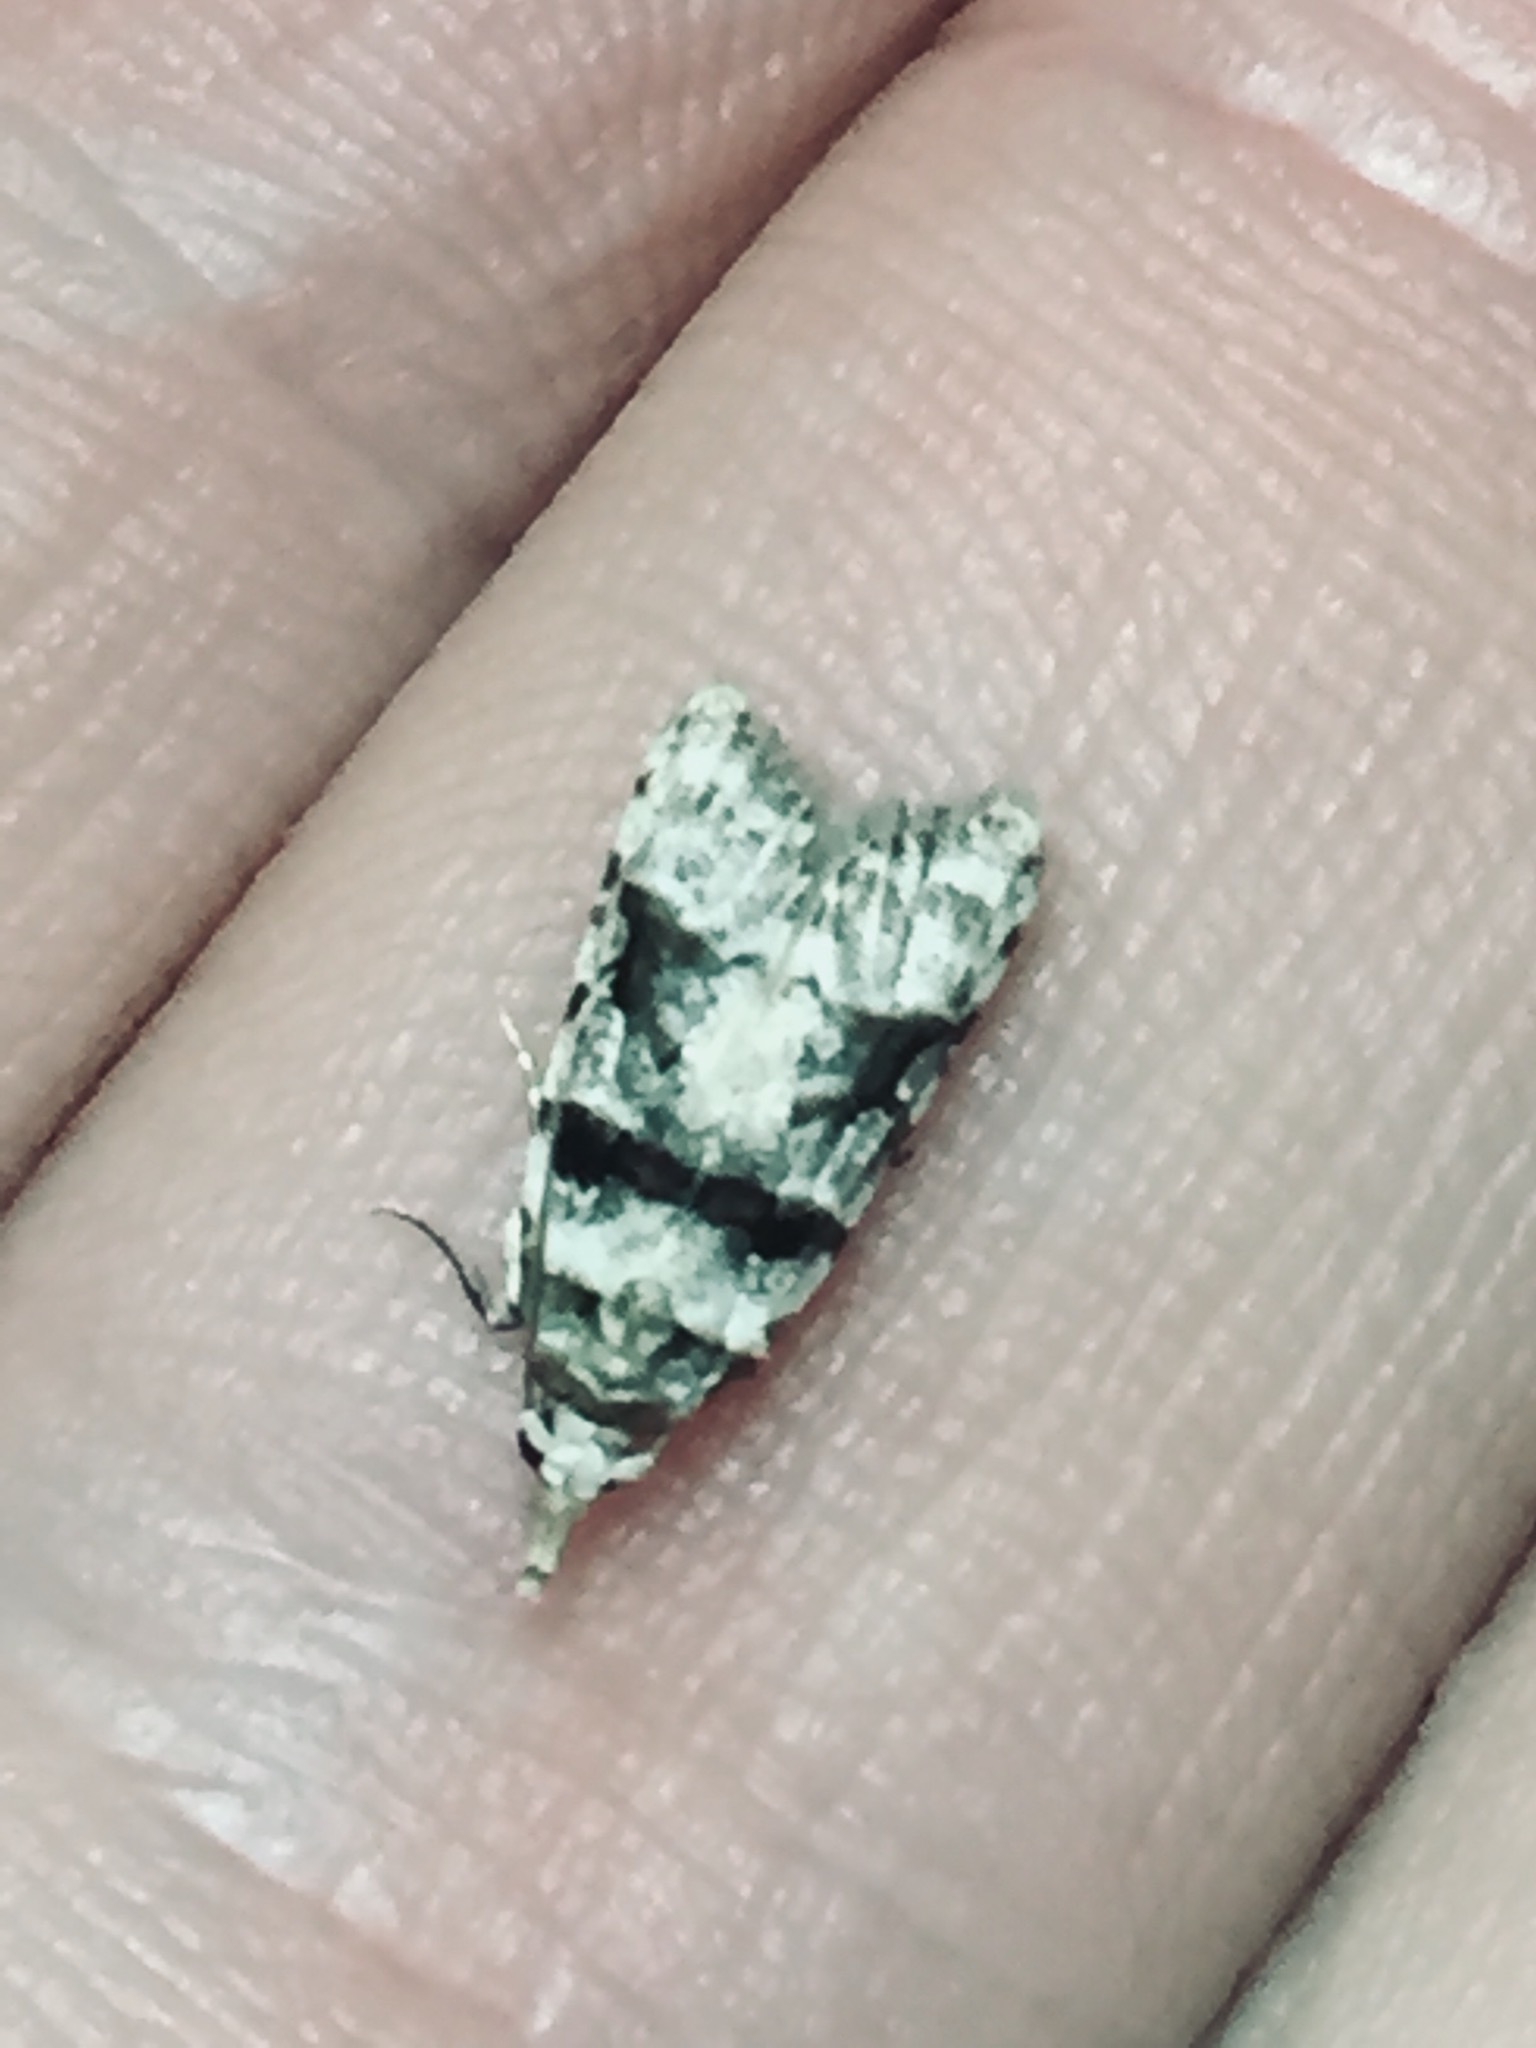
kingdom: Animalia
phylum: Arthropoda
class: Insecta
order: Lepidoptera
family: Carposinidae
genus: Coscinoptycha
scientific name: Coscinoptycha improbana
